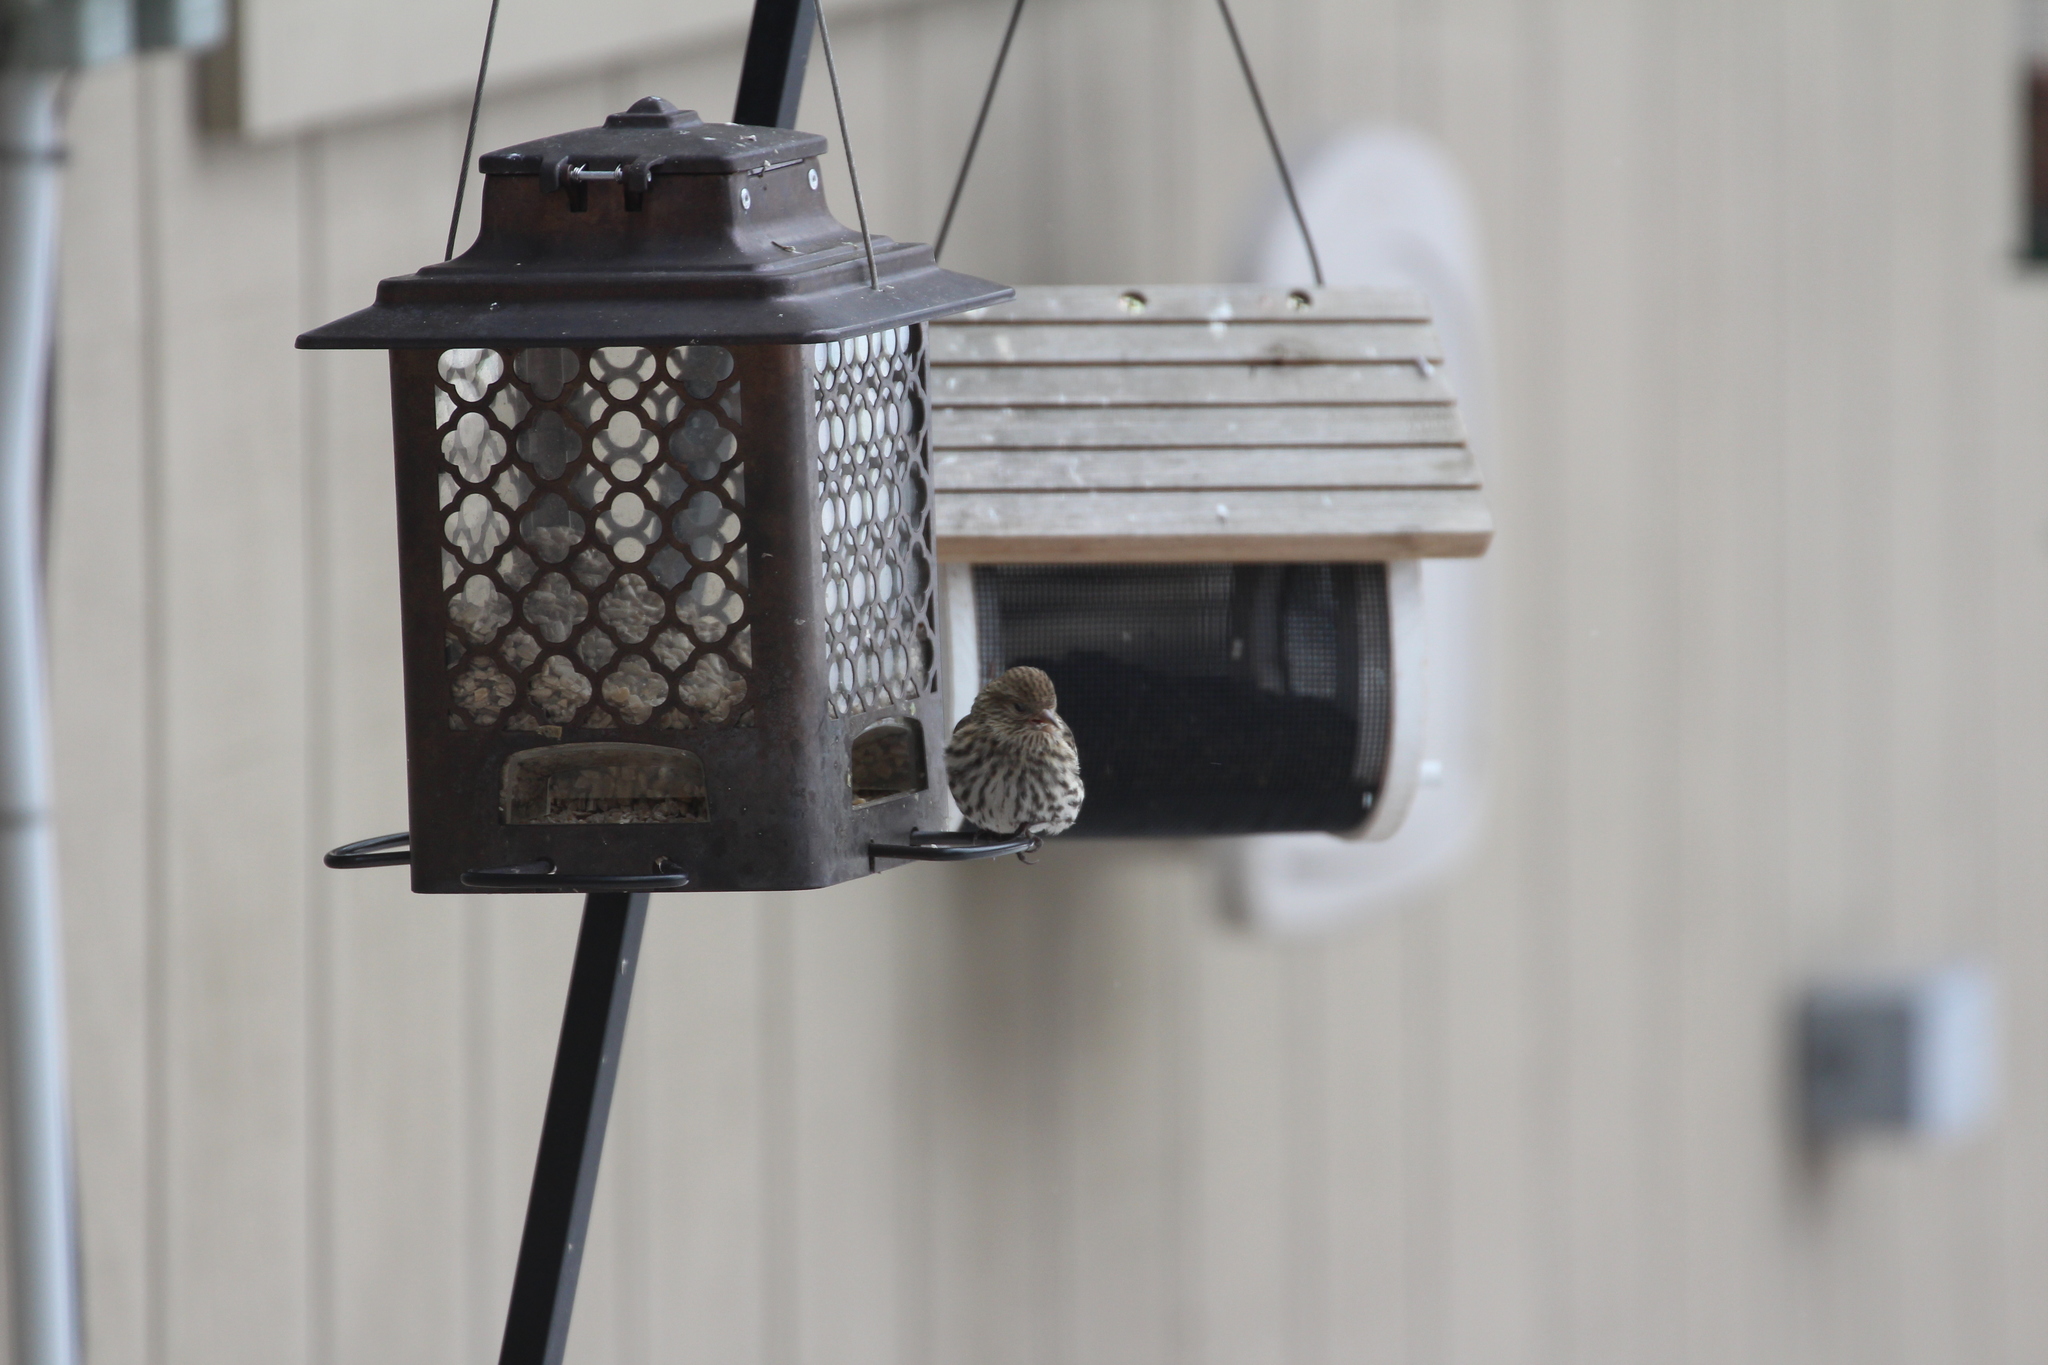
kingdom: Animalia
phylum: Chordata
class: Aves
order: Passeriformes
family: Fringillidae
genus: Spinus
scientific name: Spinus pinus
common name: Pine siskin
